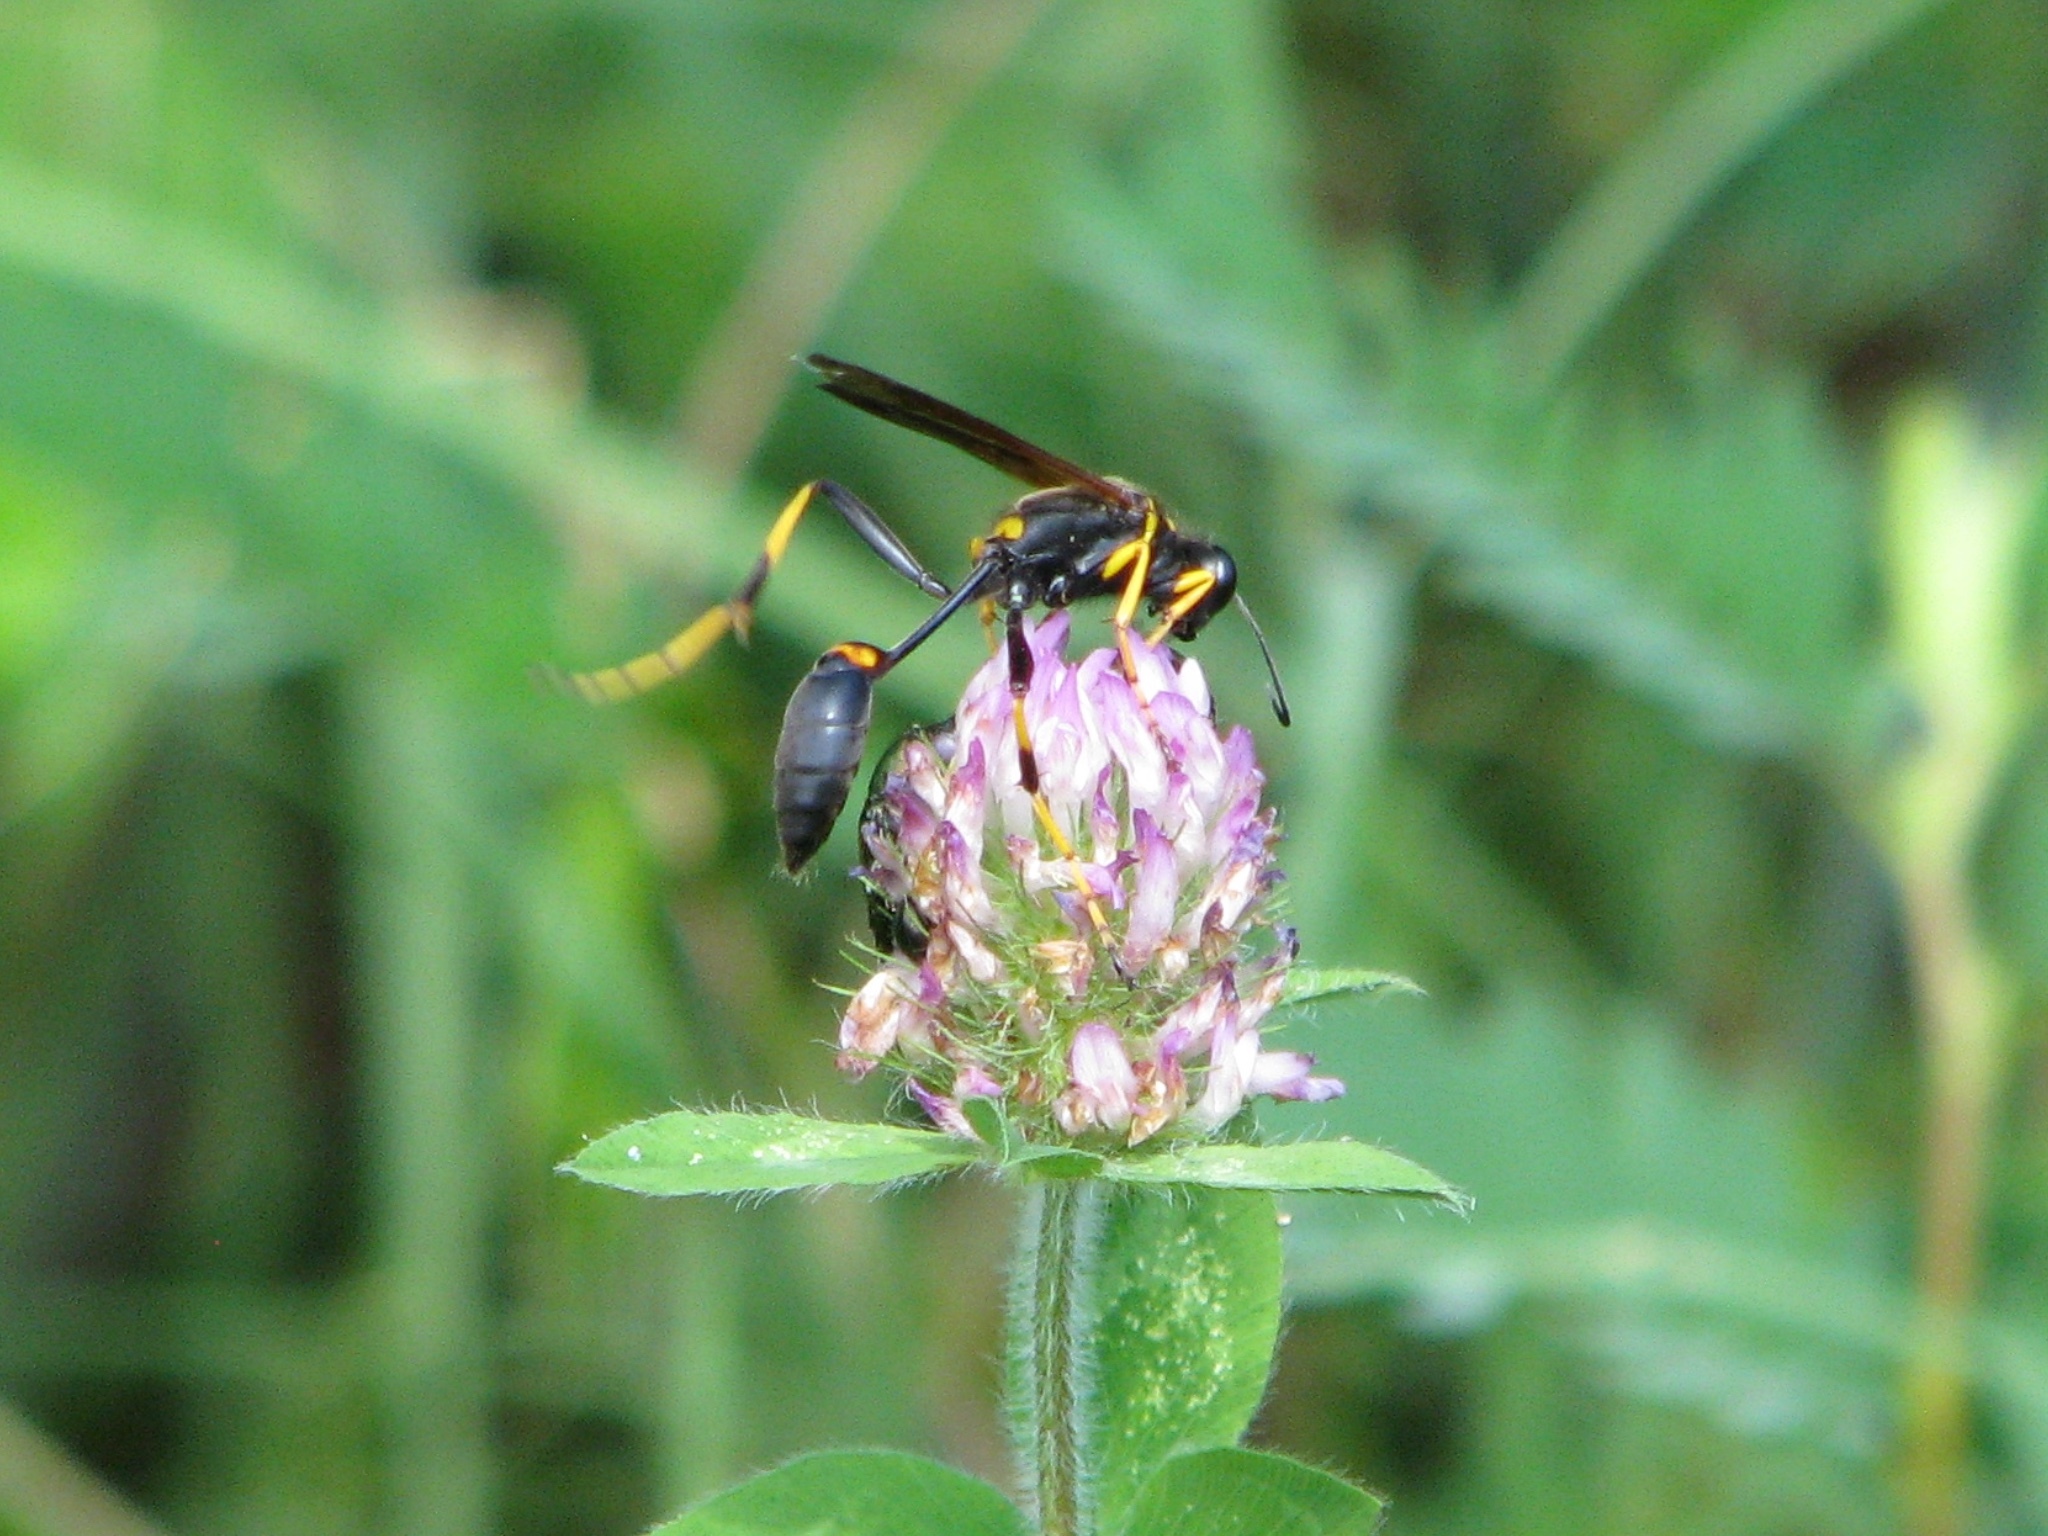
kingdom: Animalia
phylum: Arthropoda
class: Insecta
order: Hymenoptera
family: Sphecidae
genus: Sceliphron
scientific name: Sceliphron caementarium
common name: Mud dauber
